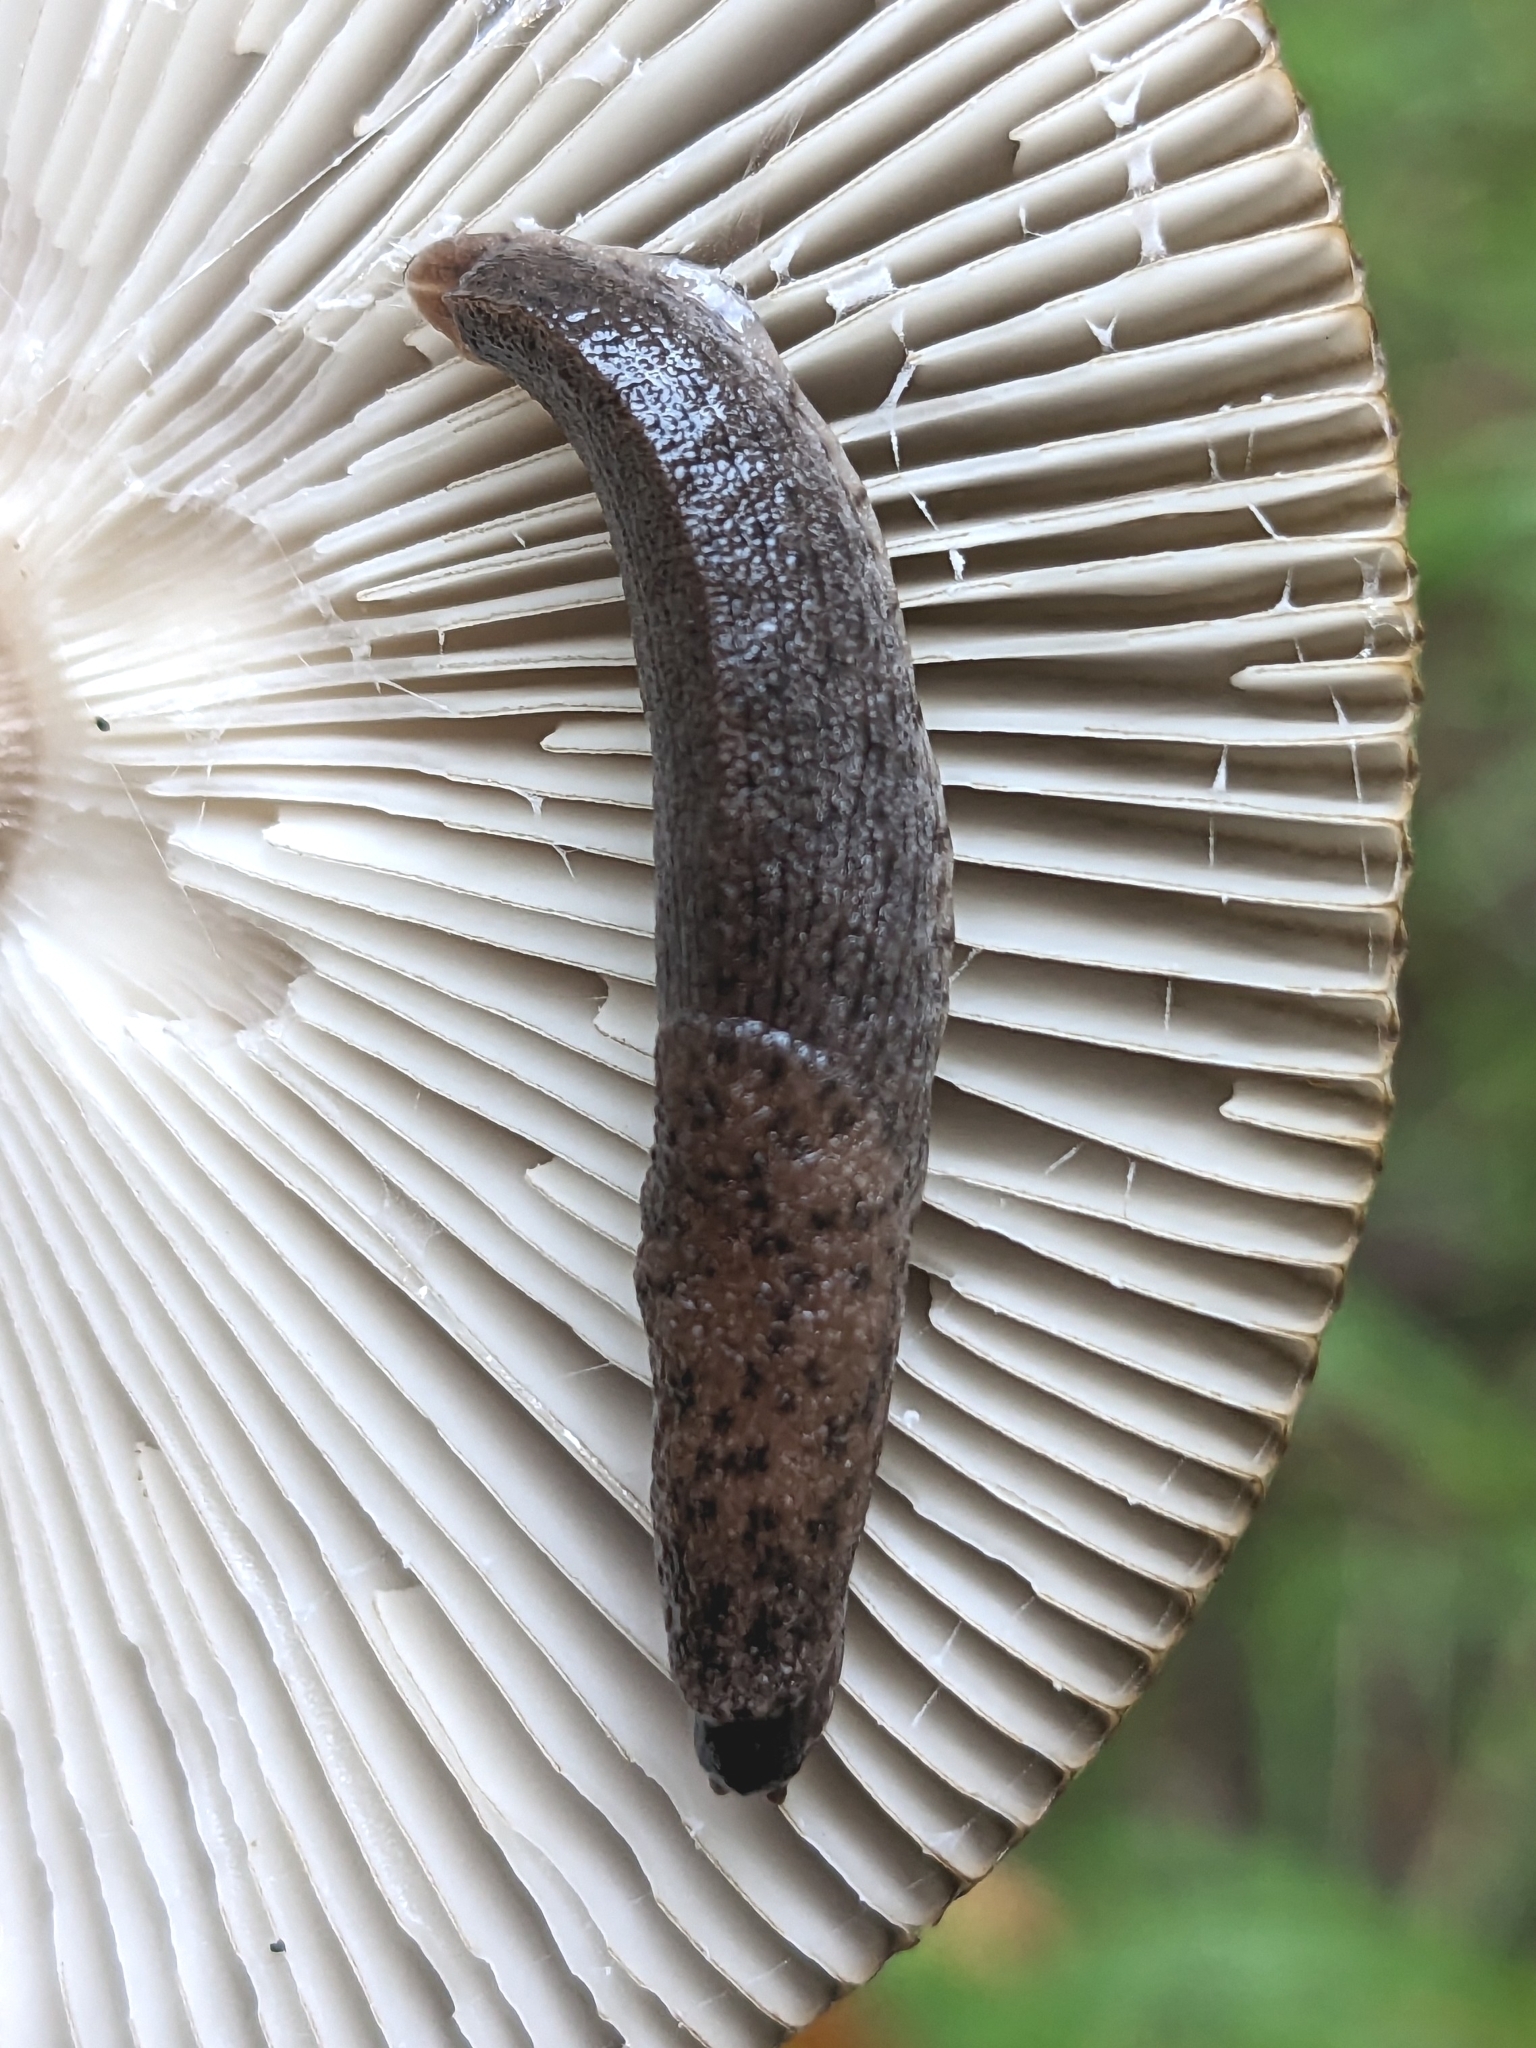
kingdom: Animalia
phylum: Mollusca
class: Gastropoda
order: Stylommatophora
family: Ariolimacidae
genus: Hesperarion
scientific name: Hesperarion niger
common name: Black western slug
